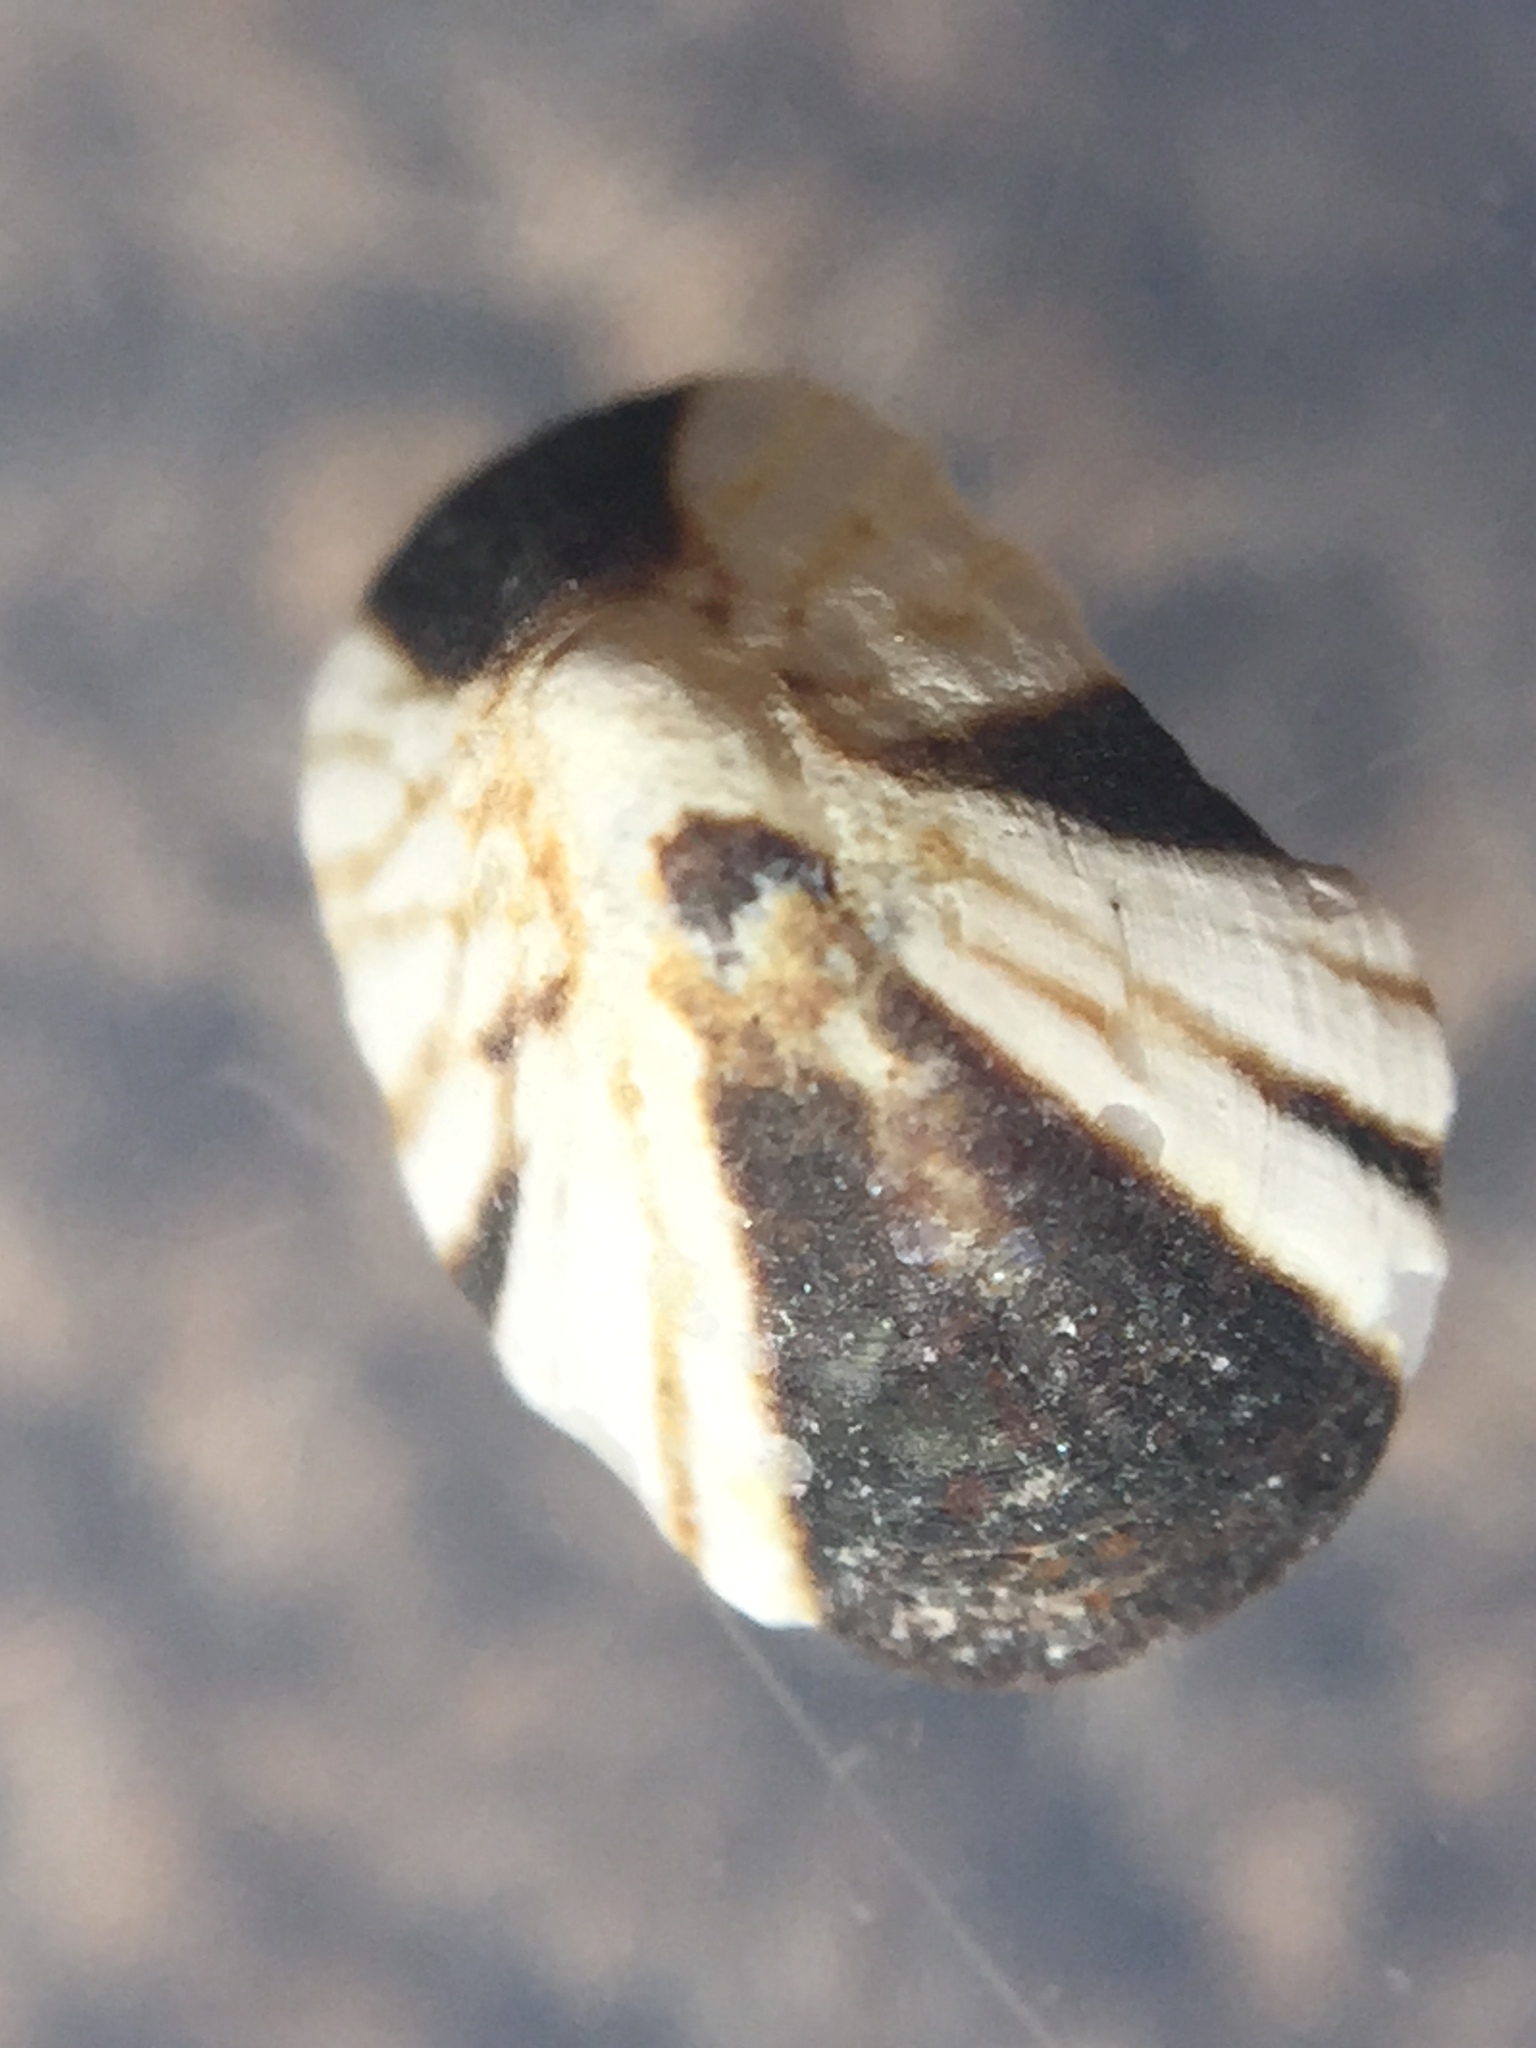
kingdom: Animalia
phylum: Mollusca
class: Gastropoda
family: Lottiidae
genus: Notoacmea
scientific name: Notoacmea parviconoidea
